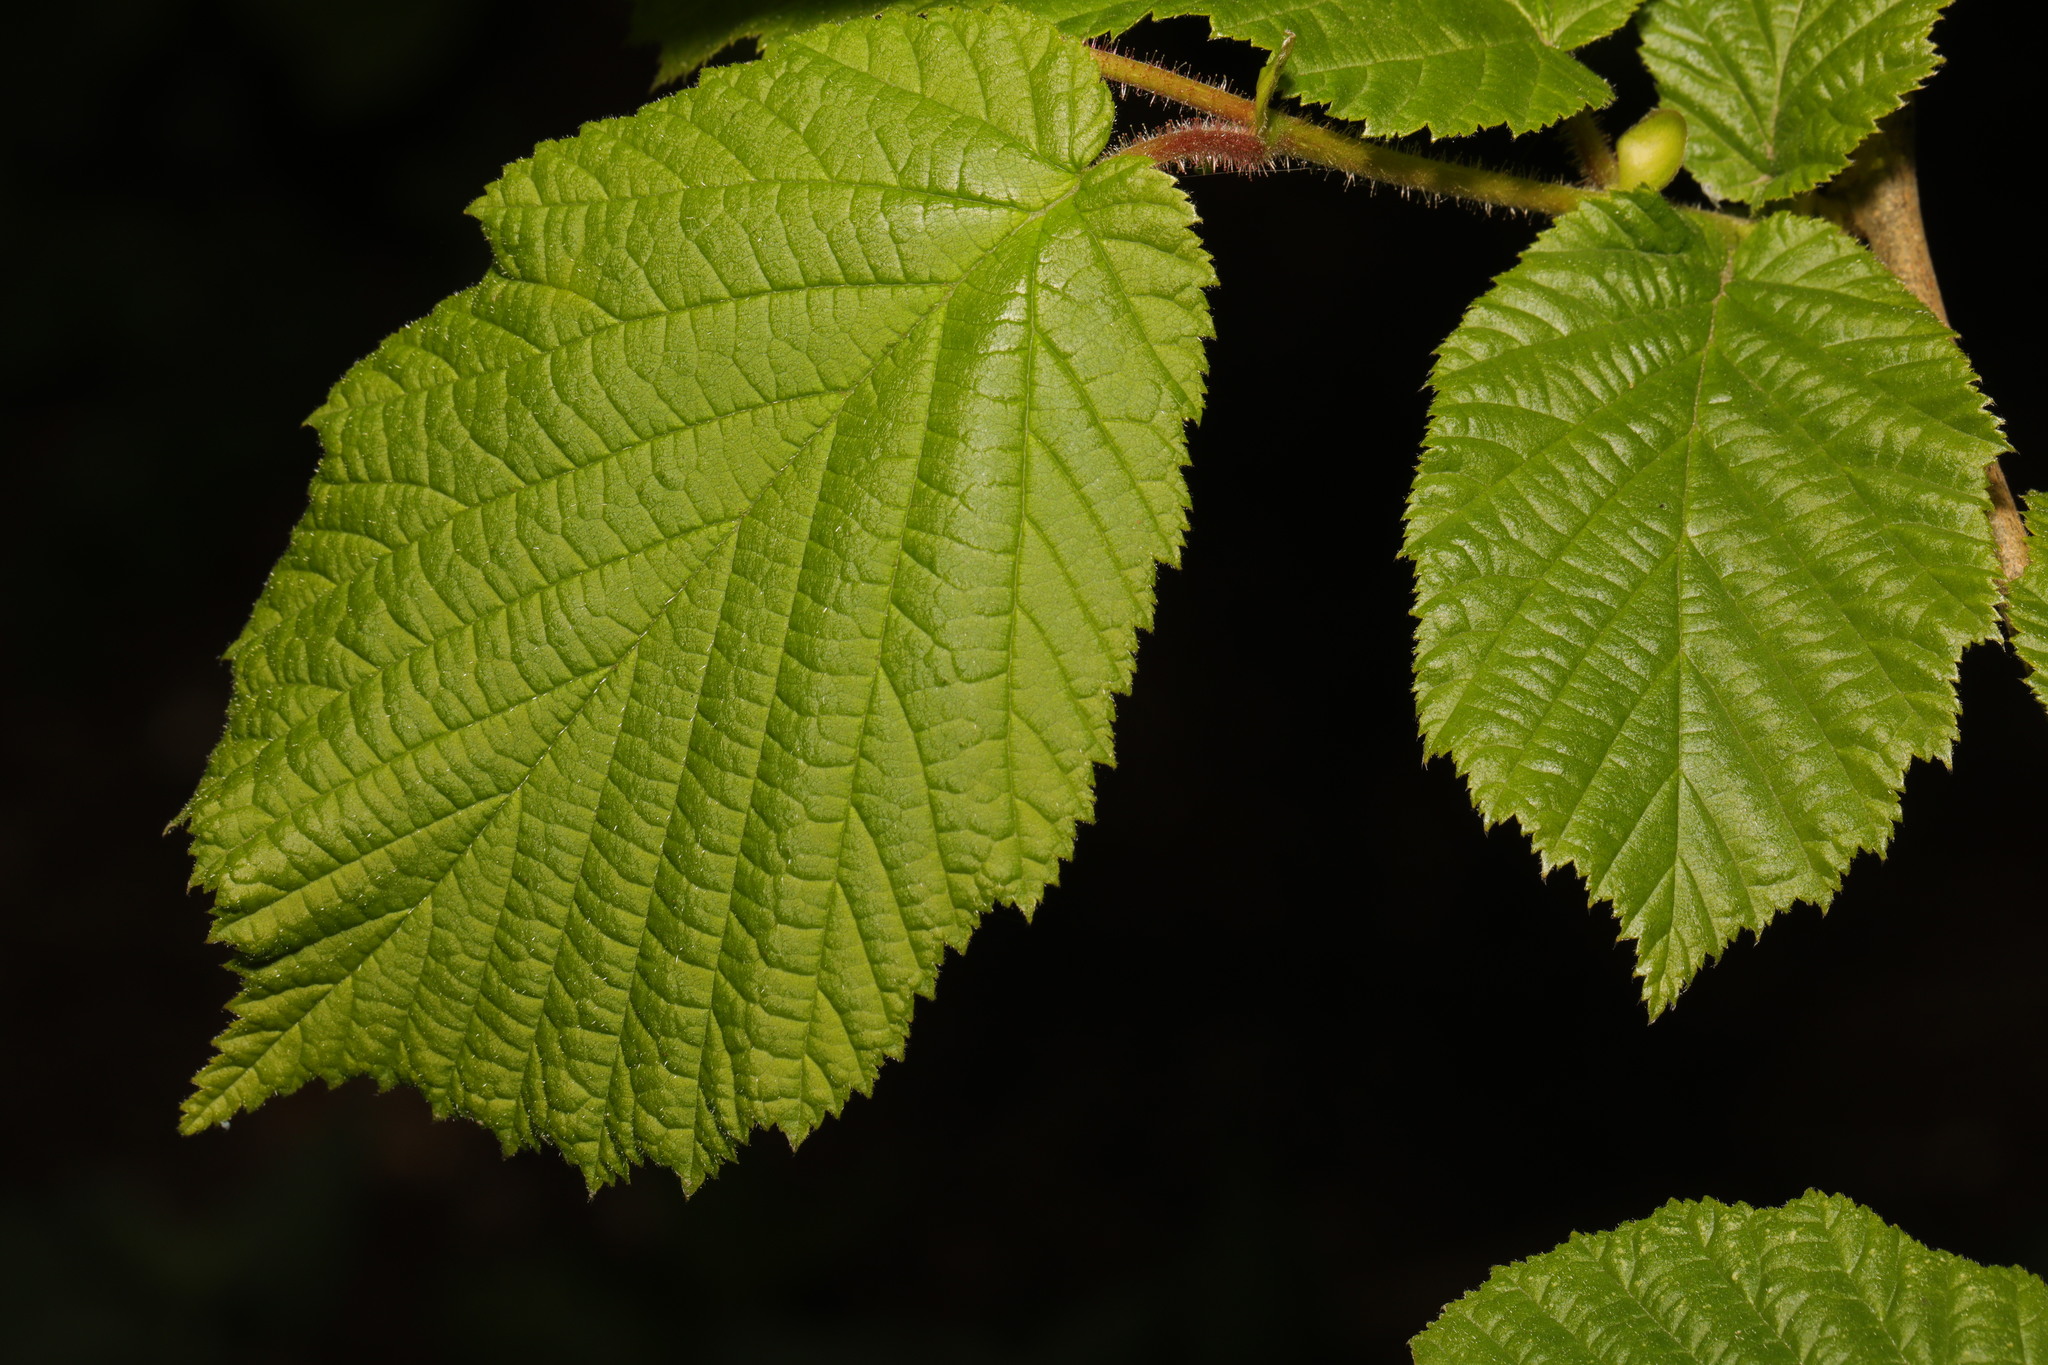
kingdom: Plantae
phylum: Tracheophyta
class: Magnoliopsida
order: Fagales
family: Betulaceae
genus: Corylus
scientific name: Corylus avellana
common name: European hazel
